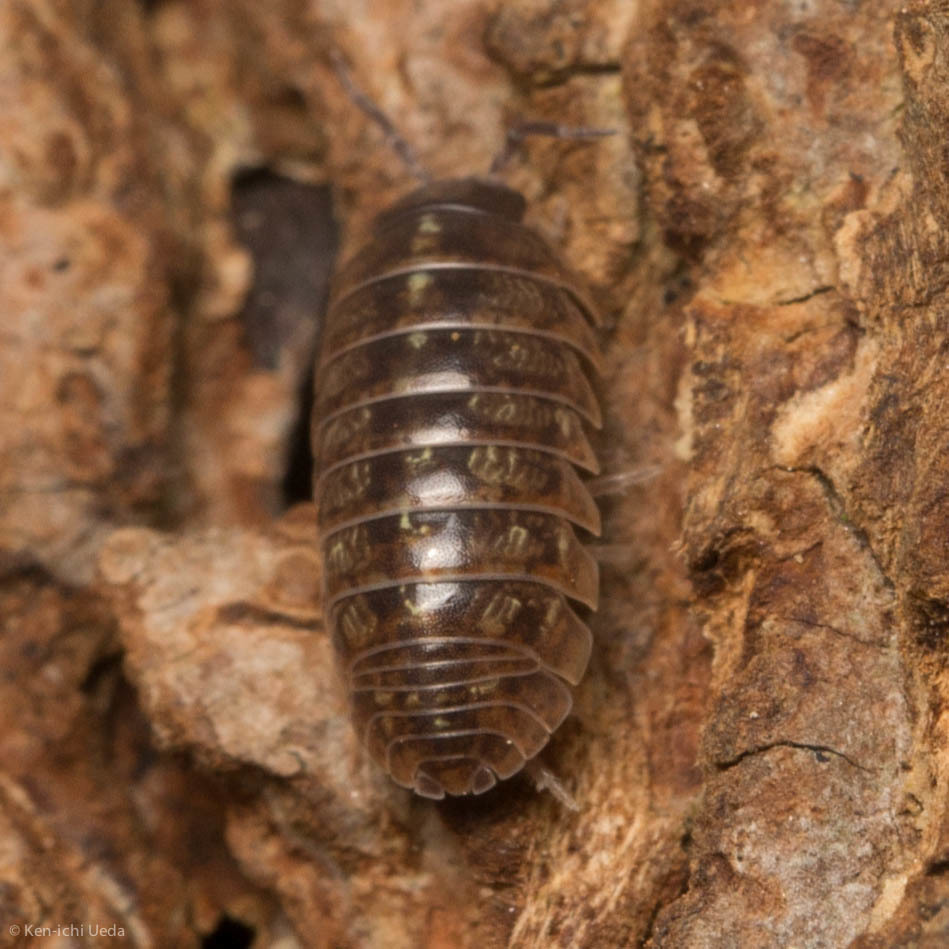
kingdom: Animalia
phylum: Arthropoda
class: Malacostraca
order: Isopoda
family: Armadillidiidae
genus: Armadillidium
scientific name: Armadillidium vulgare
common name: Common pill woodlouse
